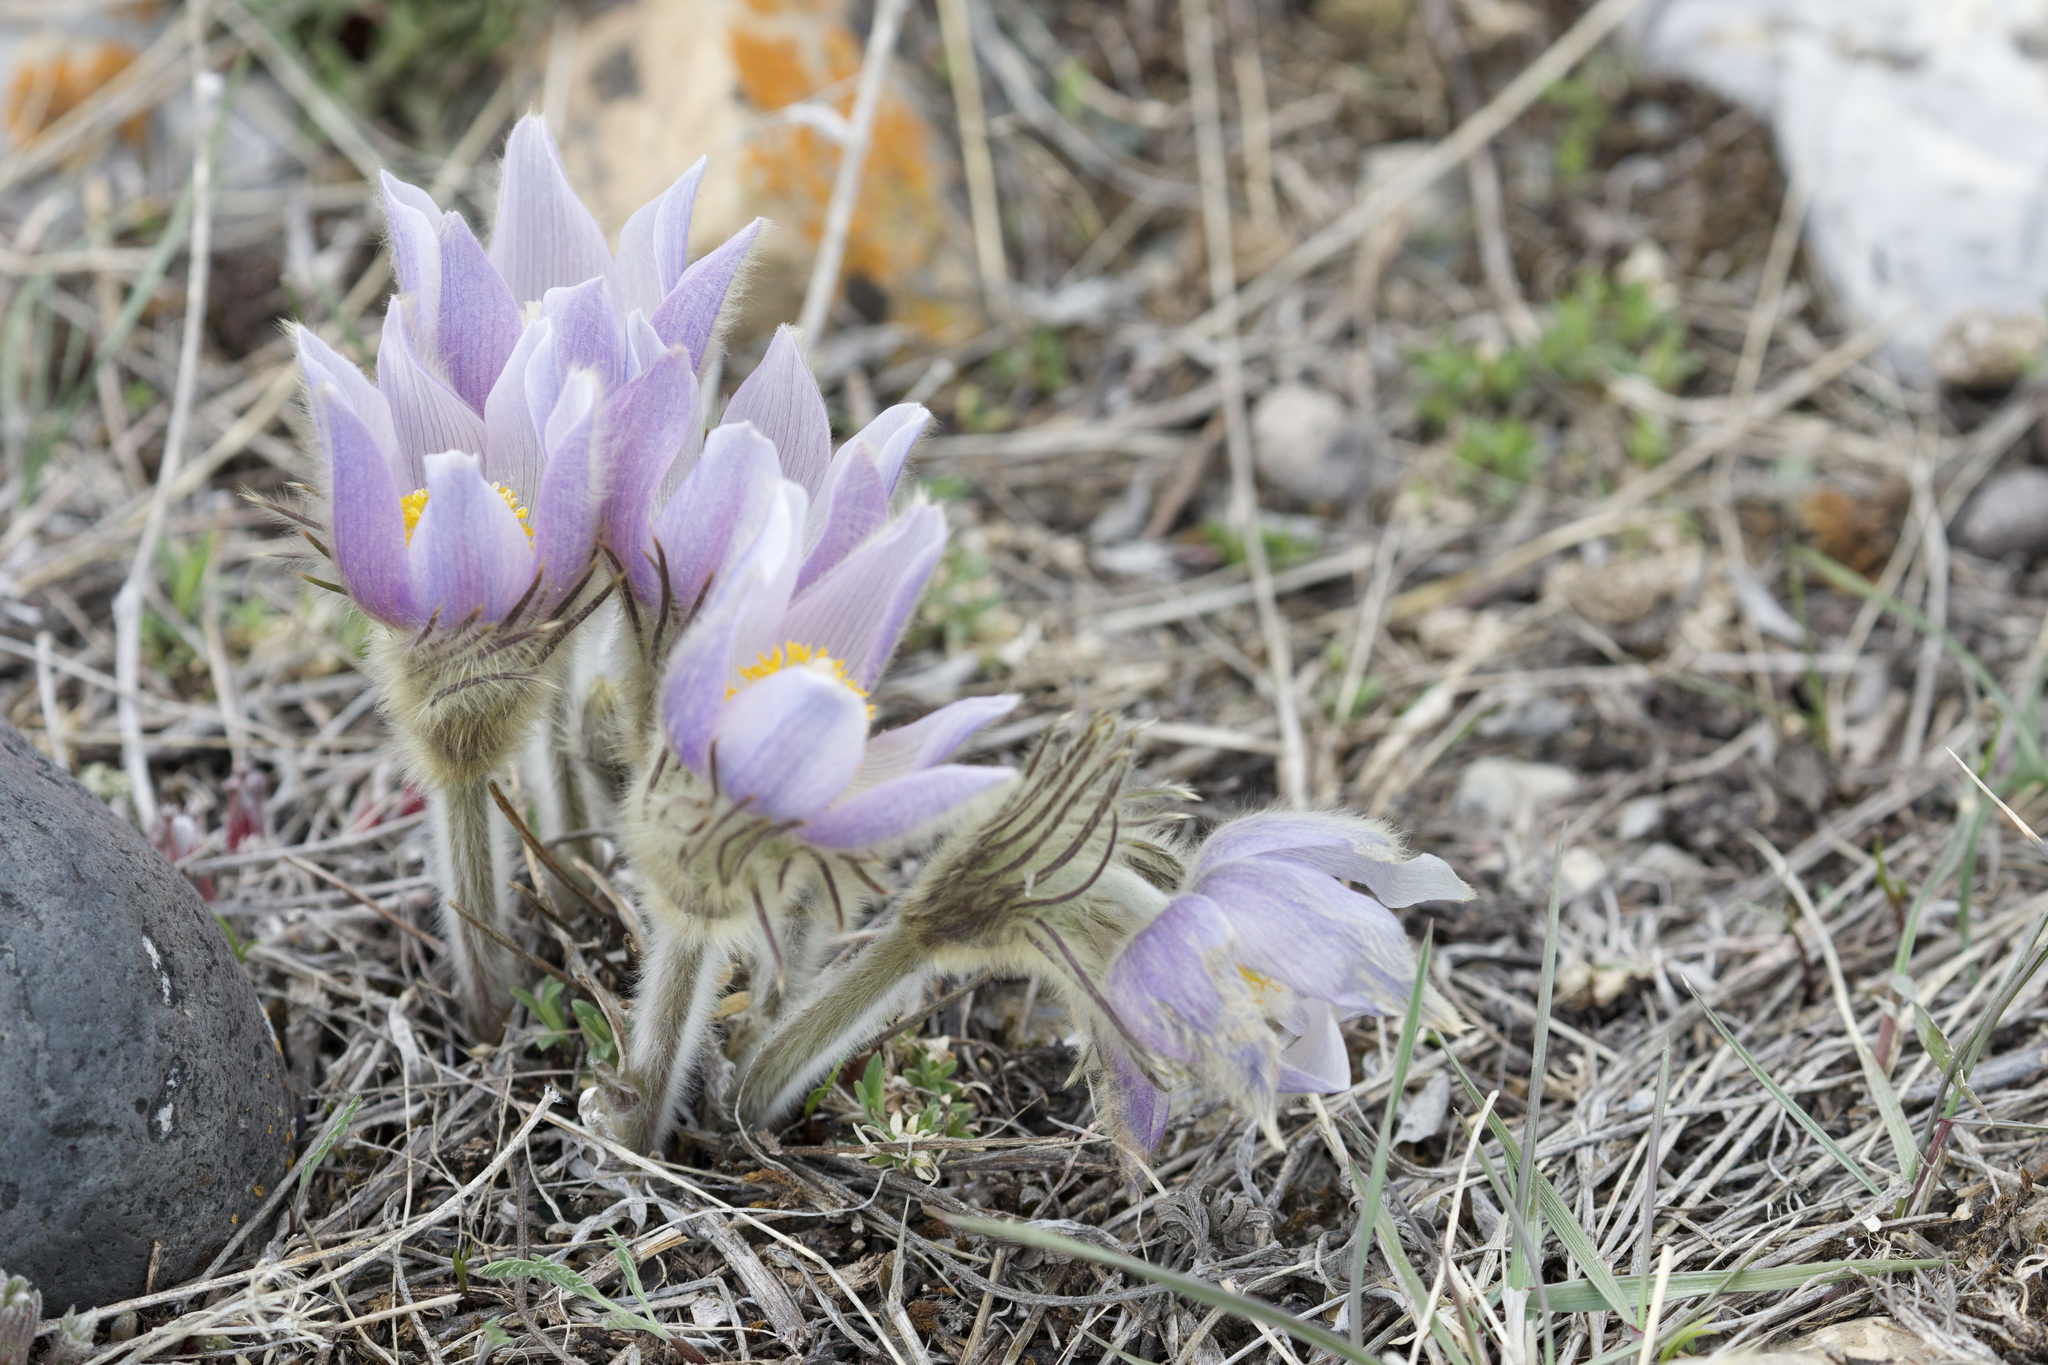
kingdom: Plantae
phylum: Tracheophyta
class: Magnoliopsida
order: Ranunculales
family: Ranunculaceae
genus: Pulsatilla
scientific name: Pulsatilla nuttalliana
